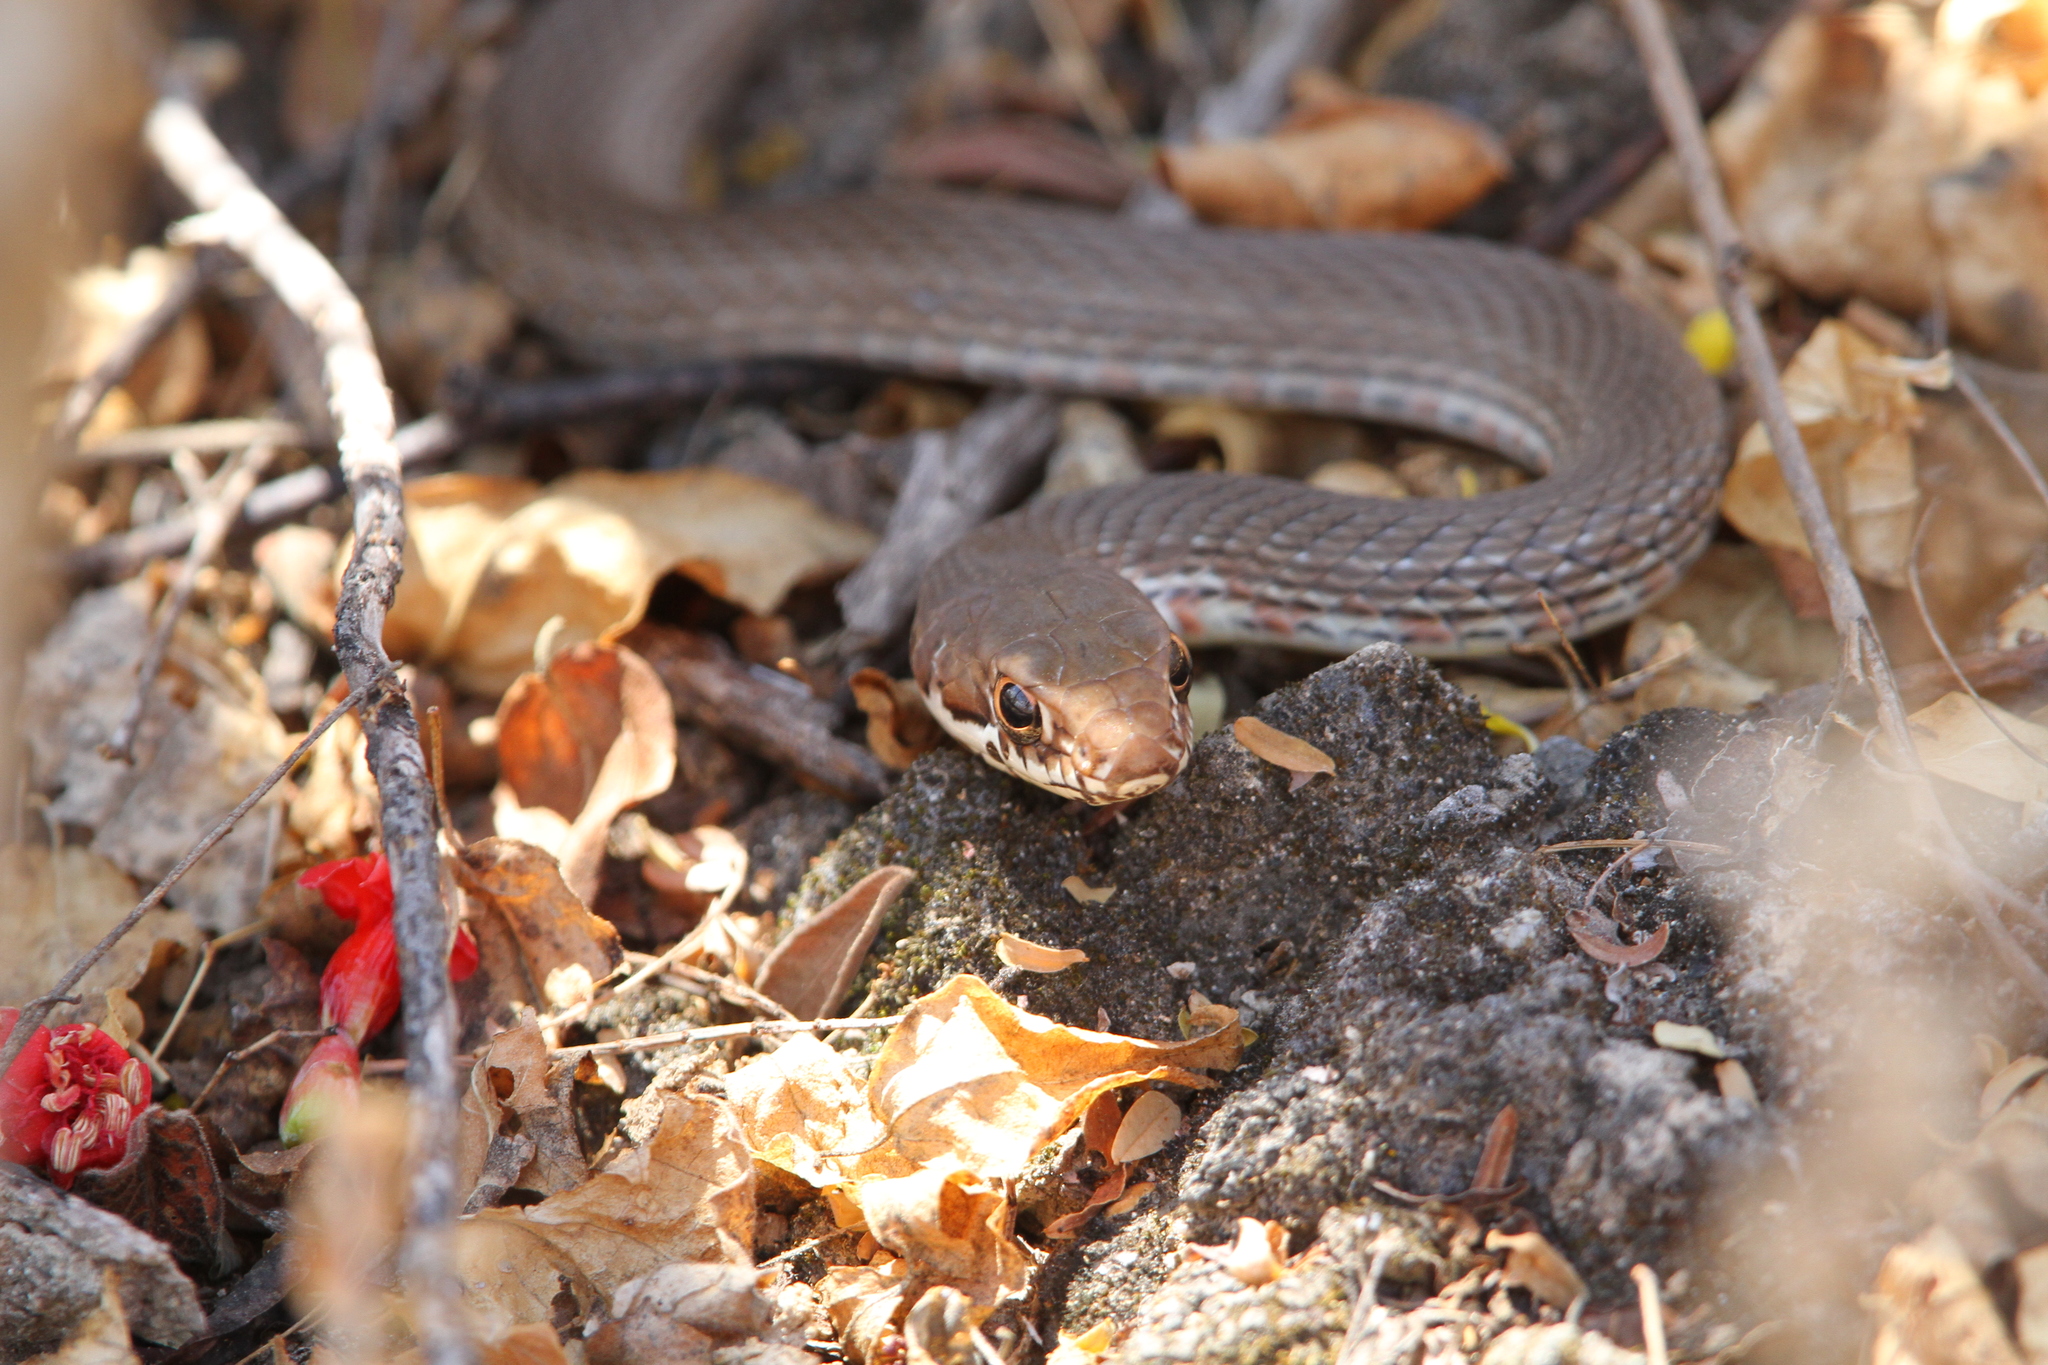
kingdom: Animalia
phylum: Chordata
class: Squamata
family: Colubridae
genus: Masticophis
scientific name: Masticophis mentovarius
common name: Neotropical whip snake
